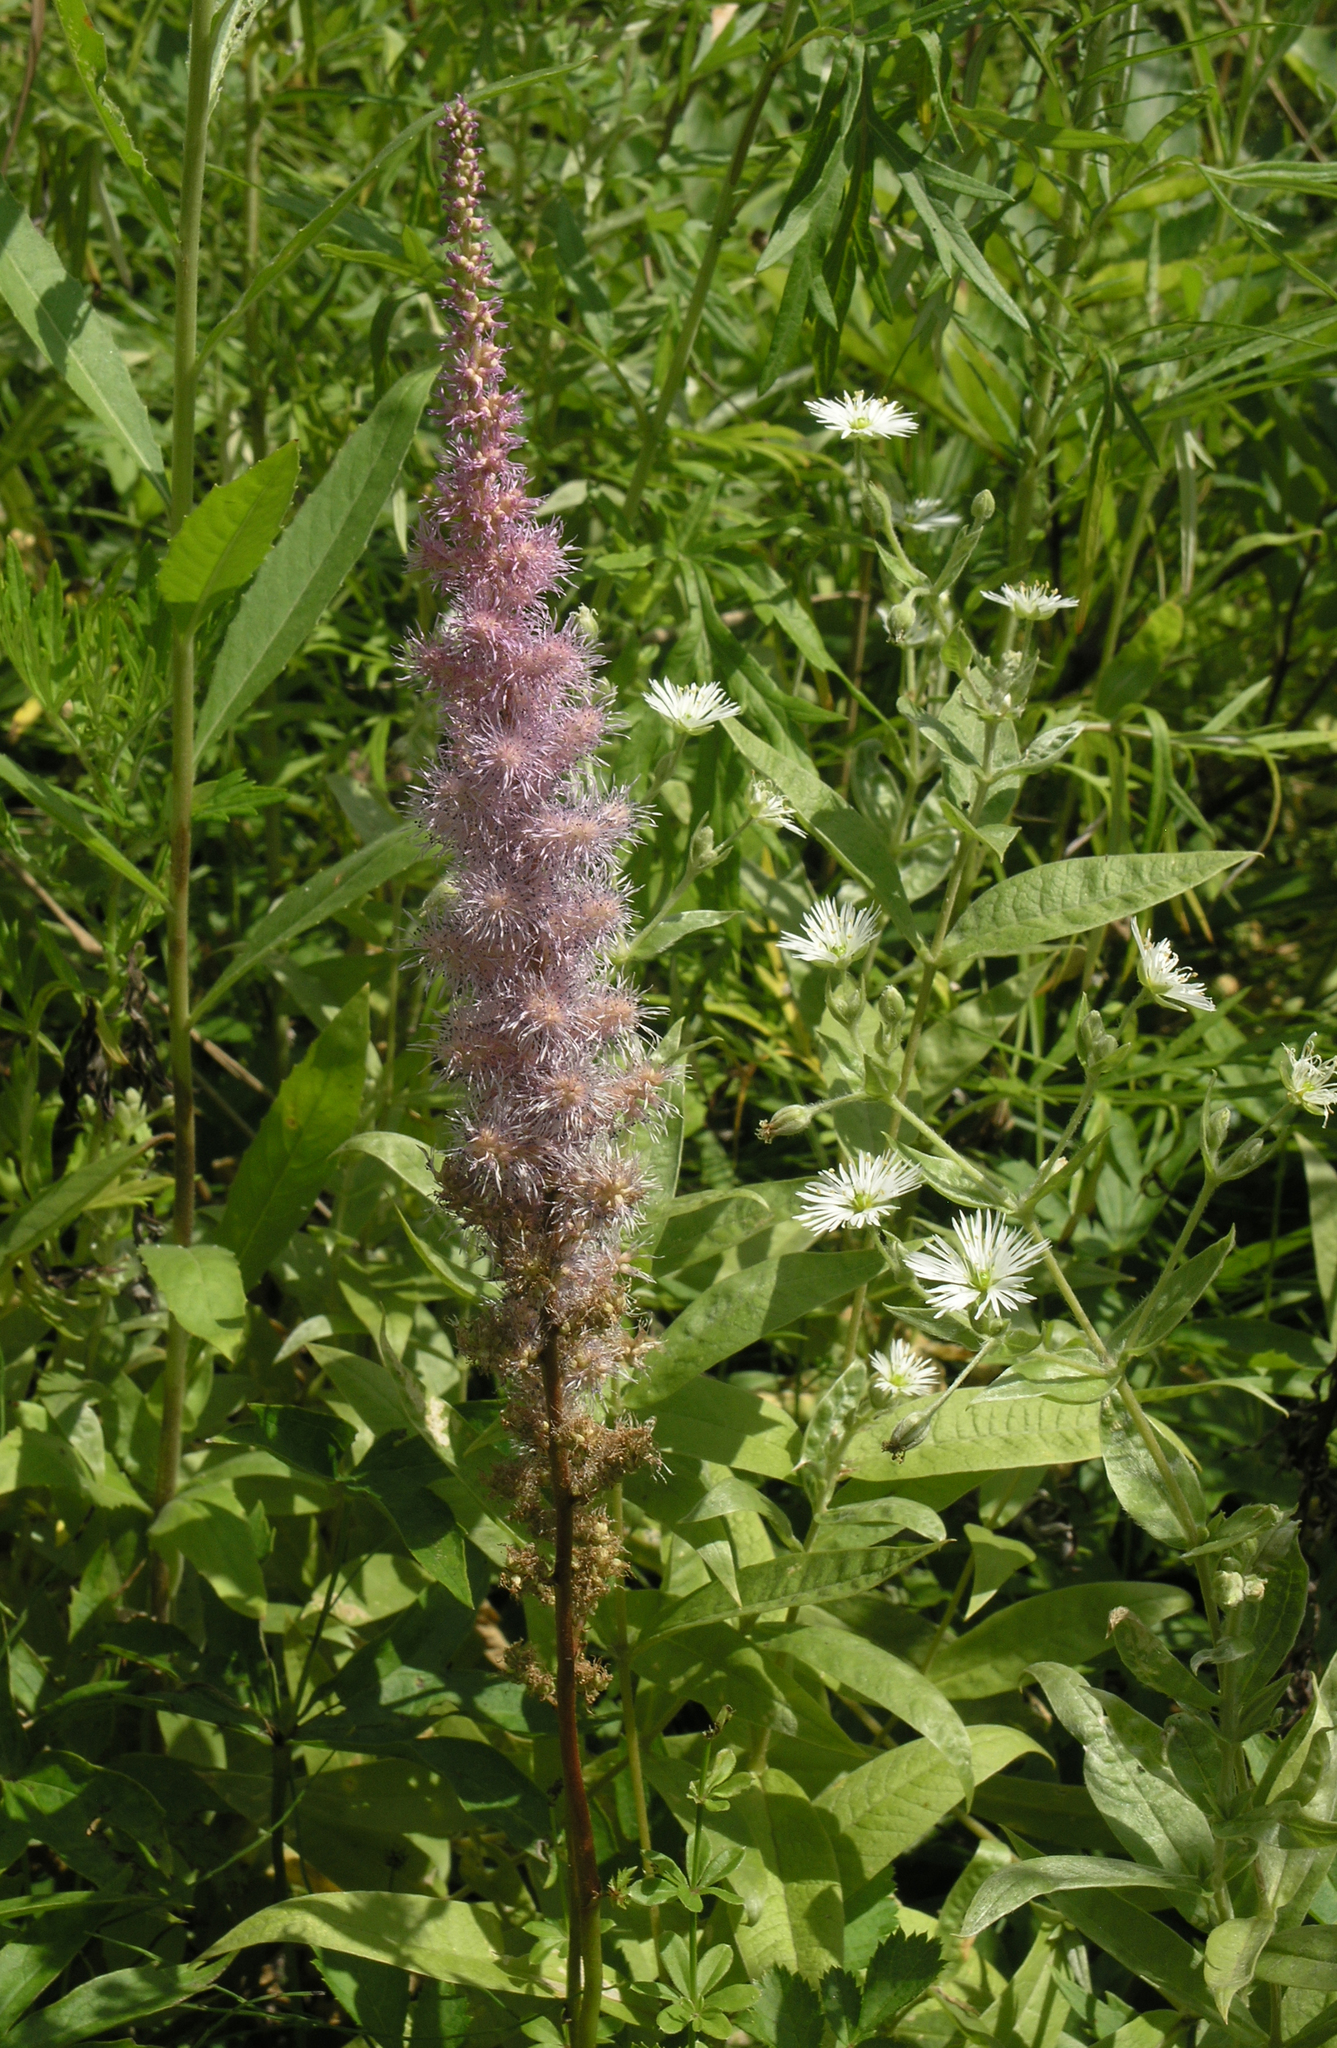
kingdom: Plantae
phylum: Tracheophyta
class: Magnoliopsida
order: Saxifragales
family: Saxifragaceae
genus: Astilbe
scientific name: Astilbe rubra
